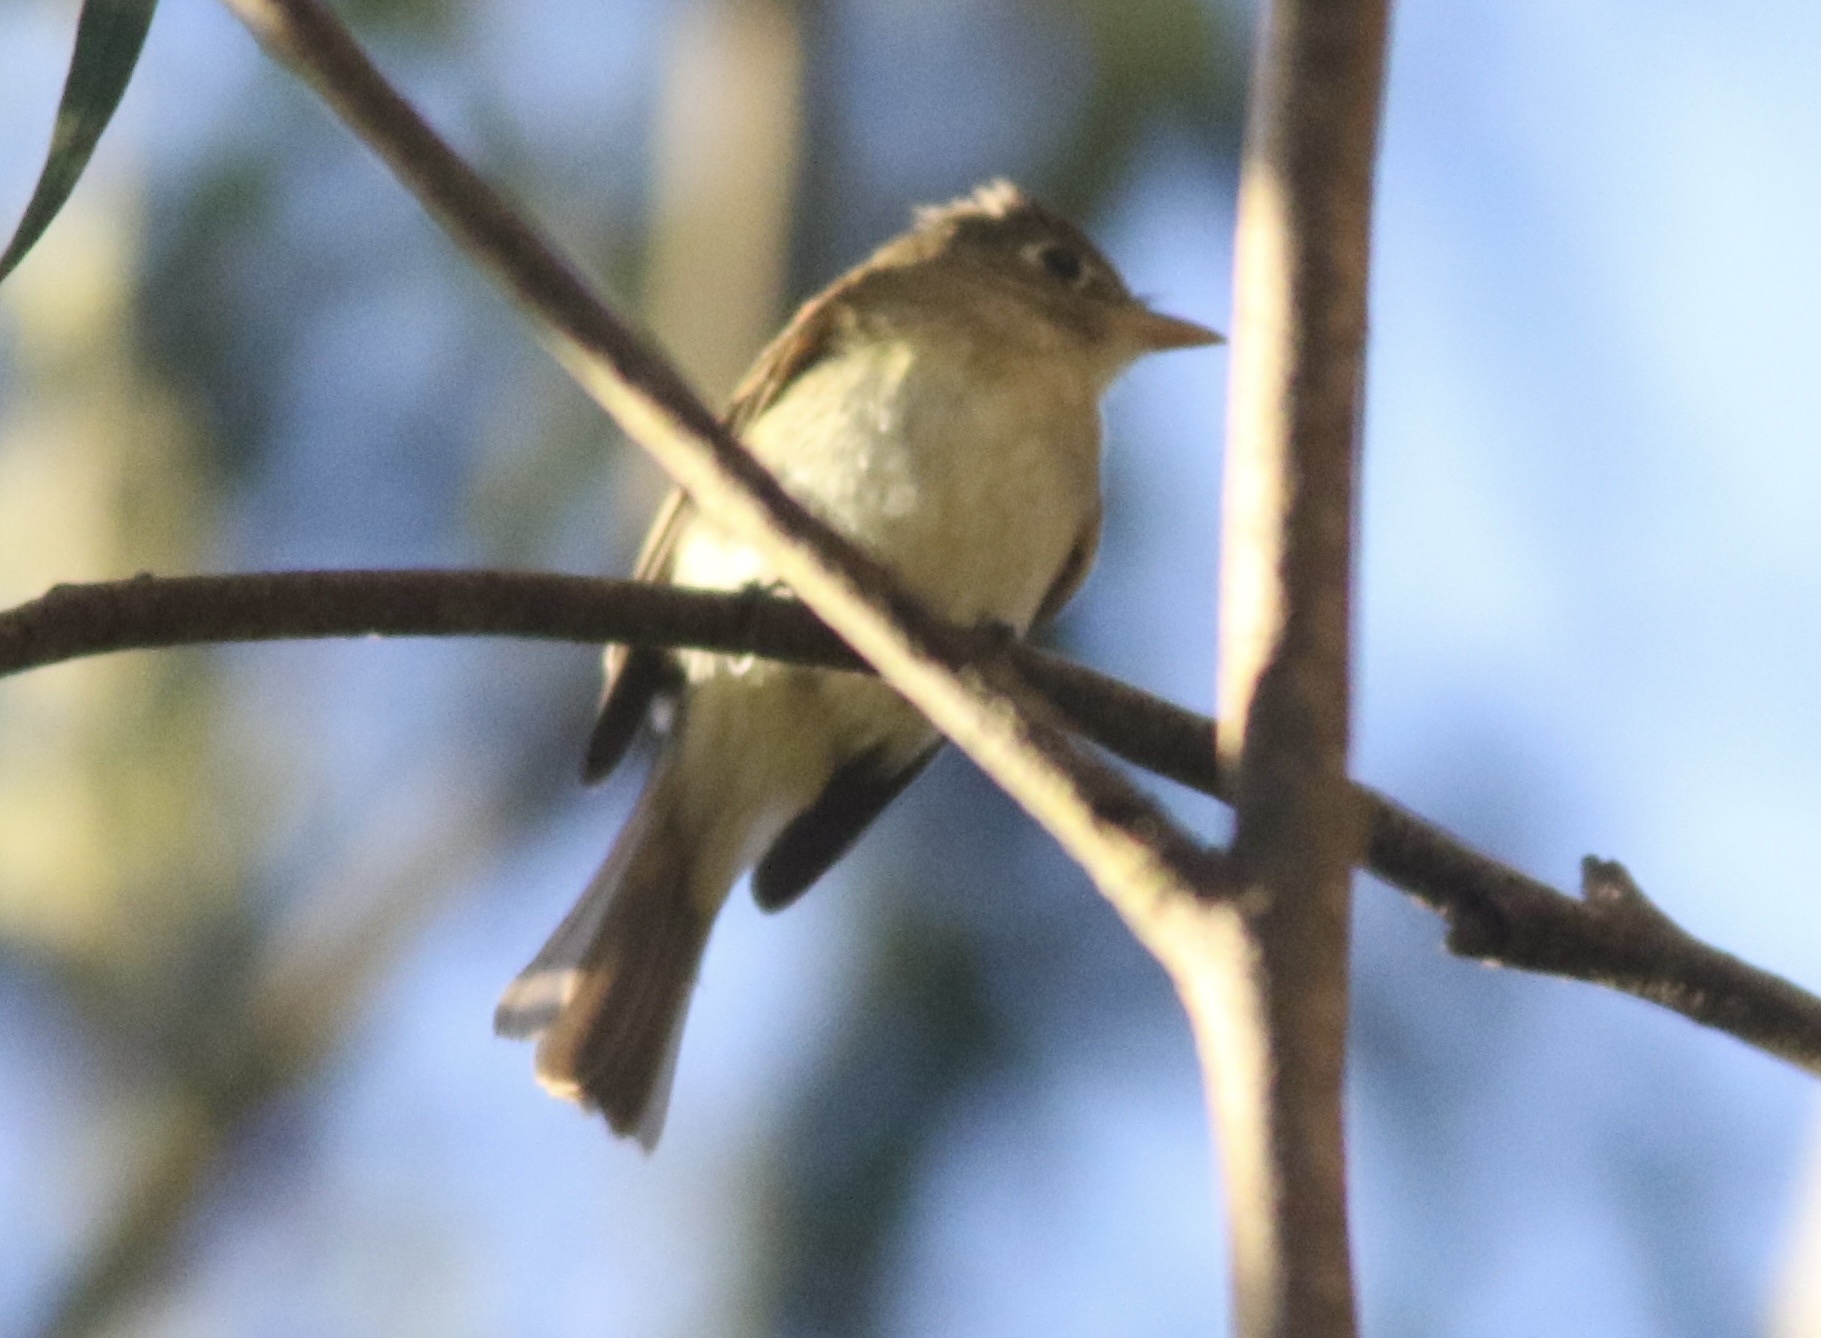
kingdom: Animalia
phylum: Chordata
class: Aves
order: Passeriformes
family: Tyrannidae
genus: Empidonax
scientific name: Empidonax difficilis
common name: Pacific-slope flycatcher
